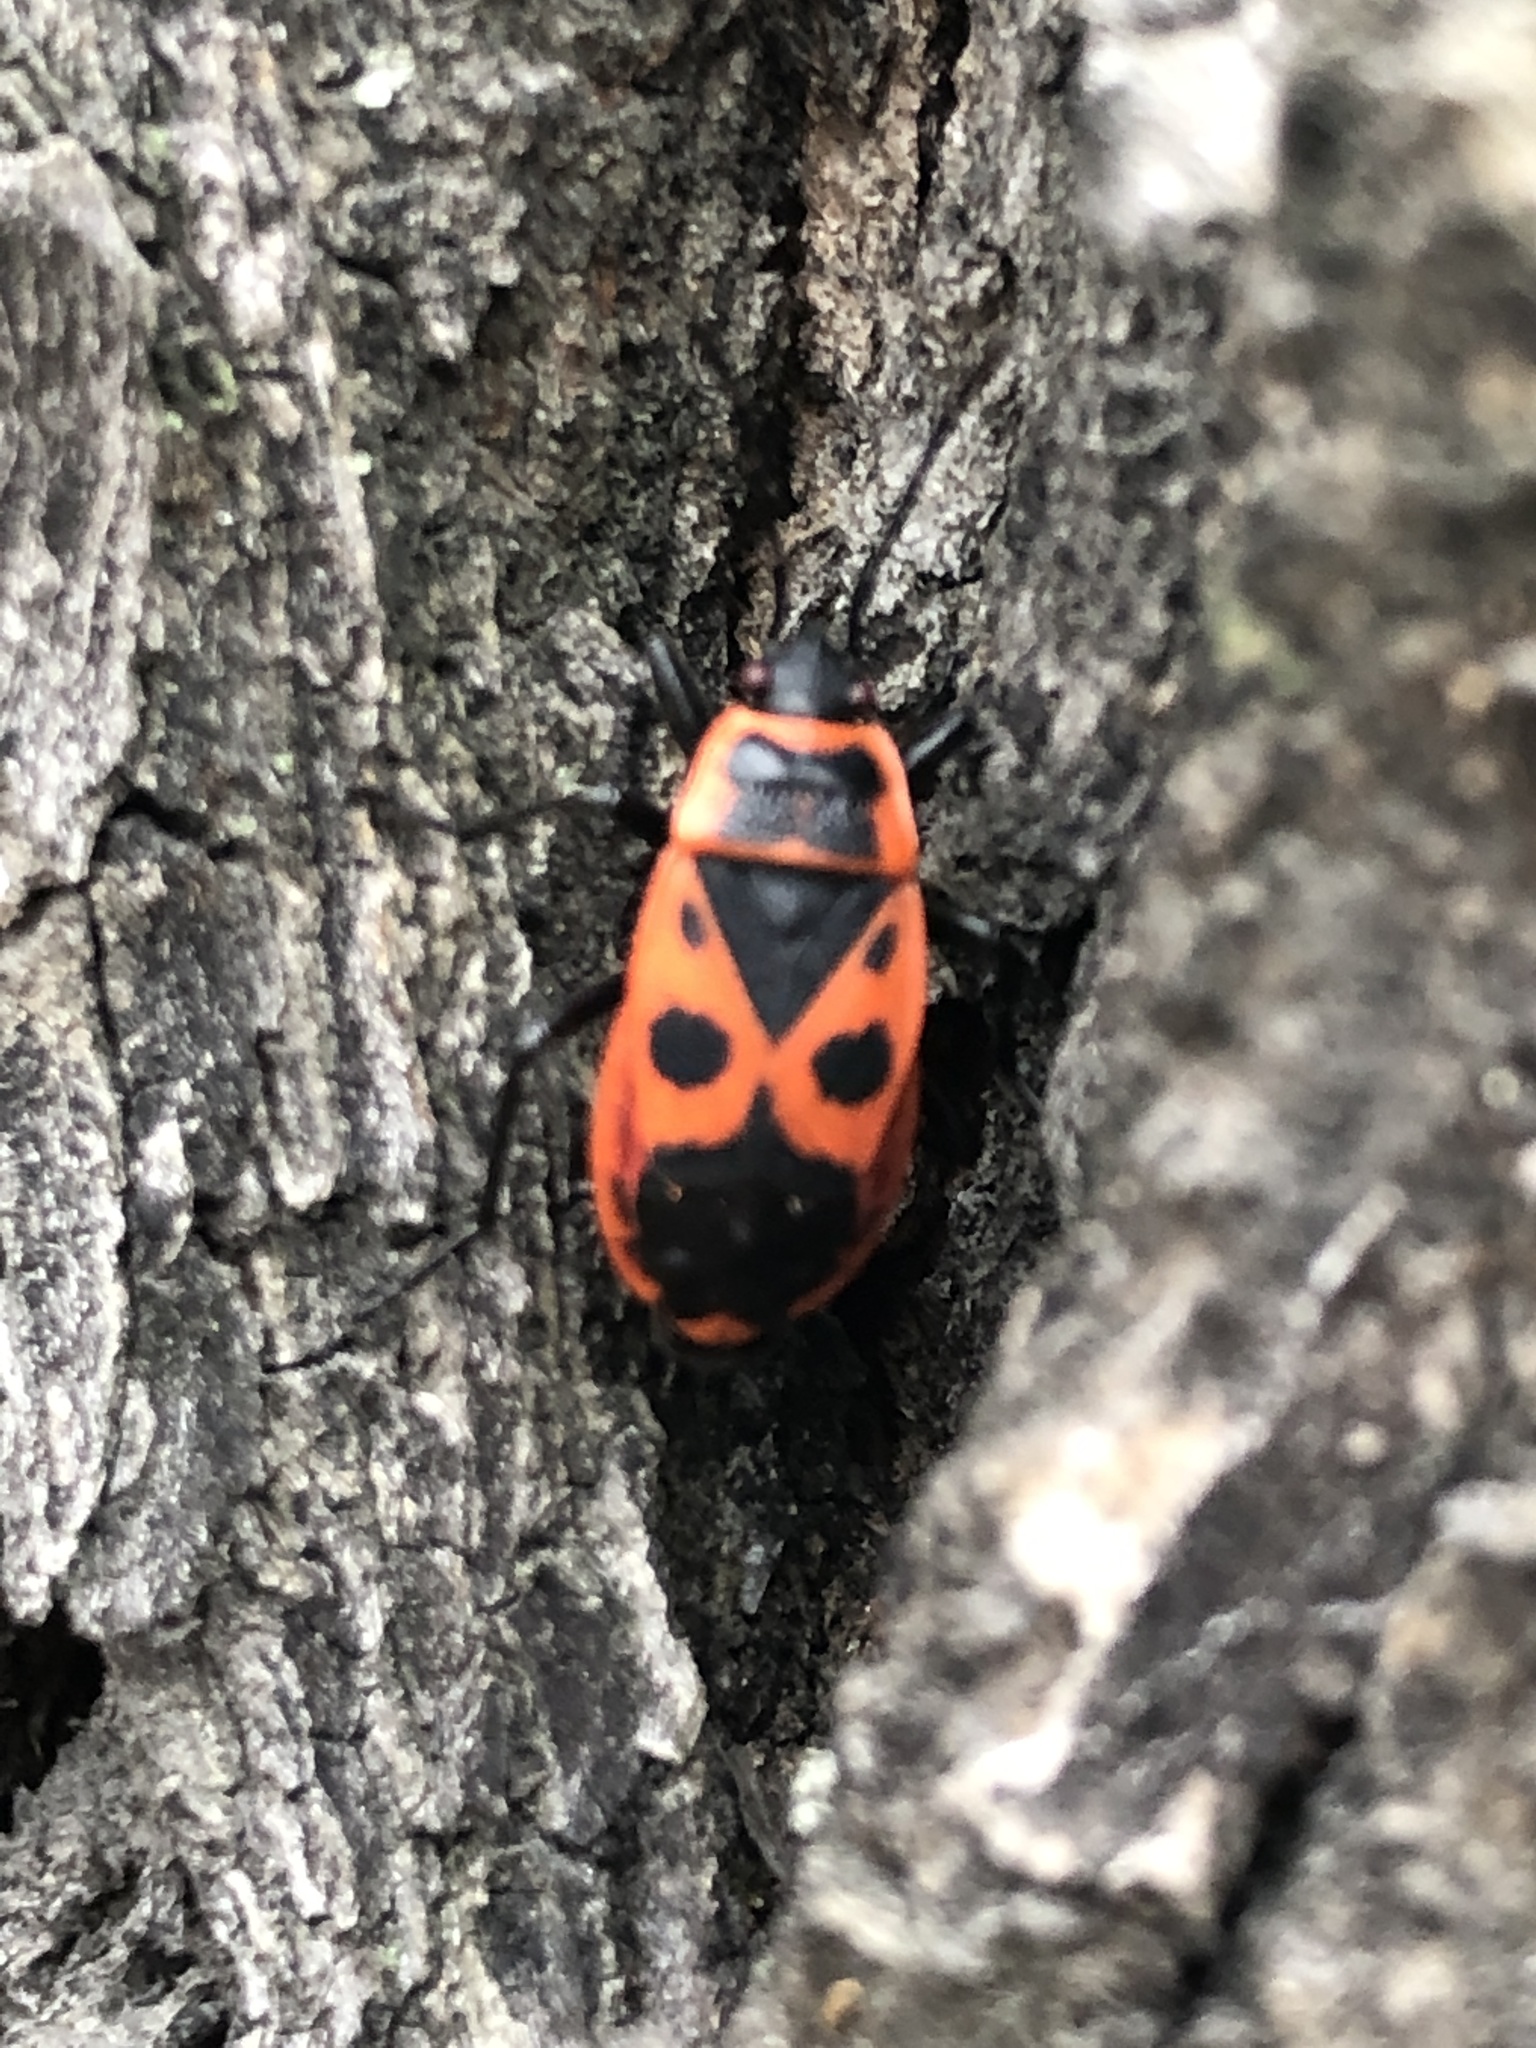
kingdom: Animalia
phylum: Arthropoda
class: Insecta
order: Hemiptera
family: Pyrrhocoridae
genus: Pyrrhocoris
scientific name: Pyrrhocoris apterus
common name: Firebug
